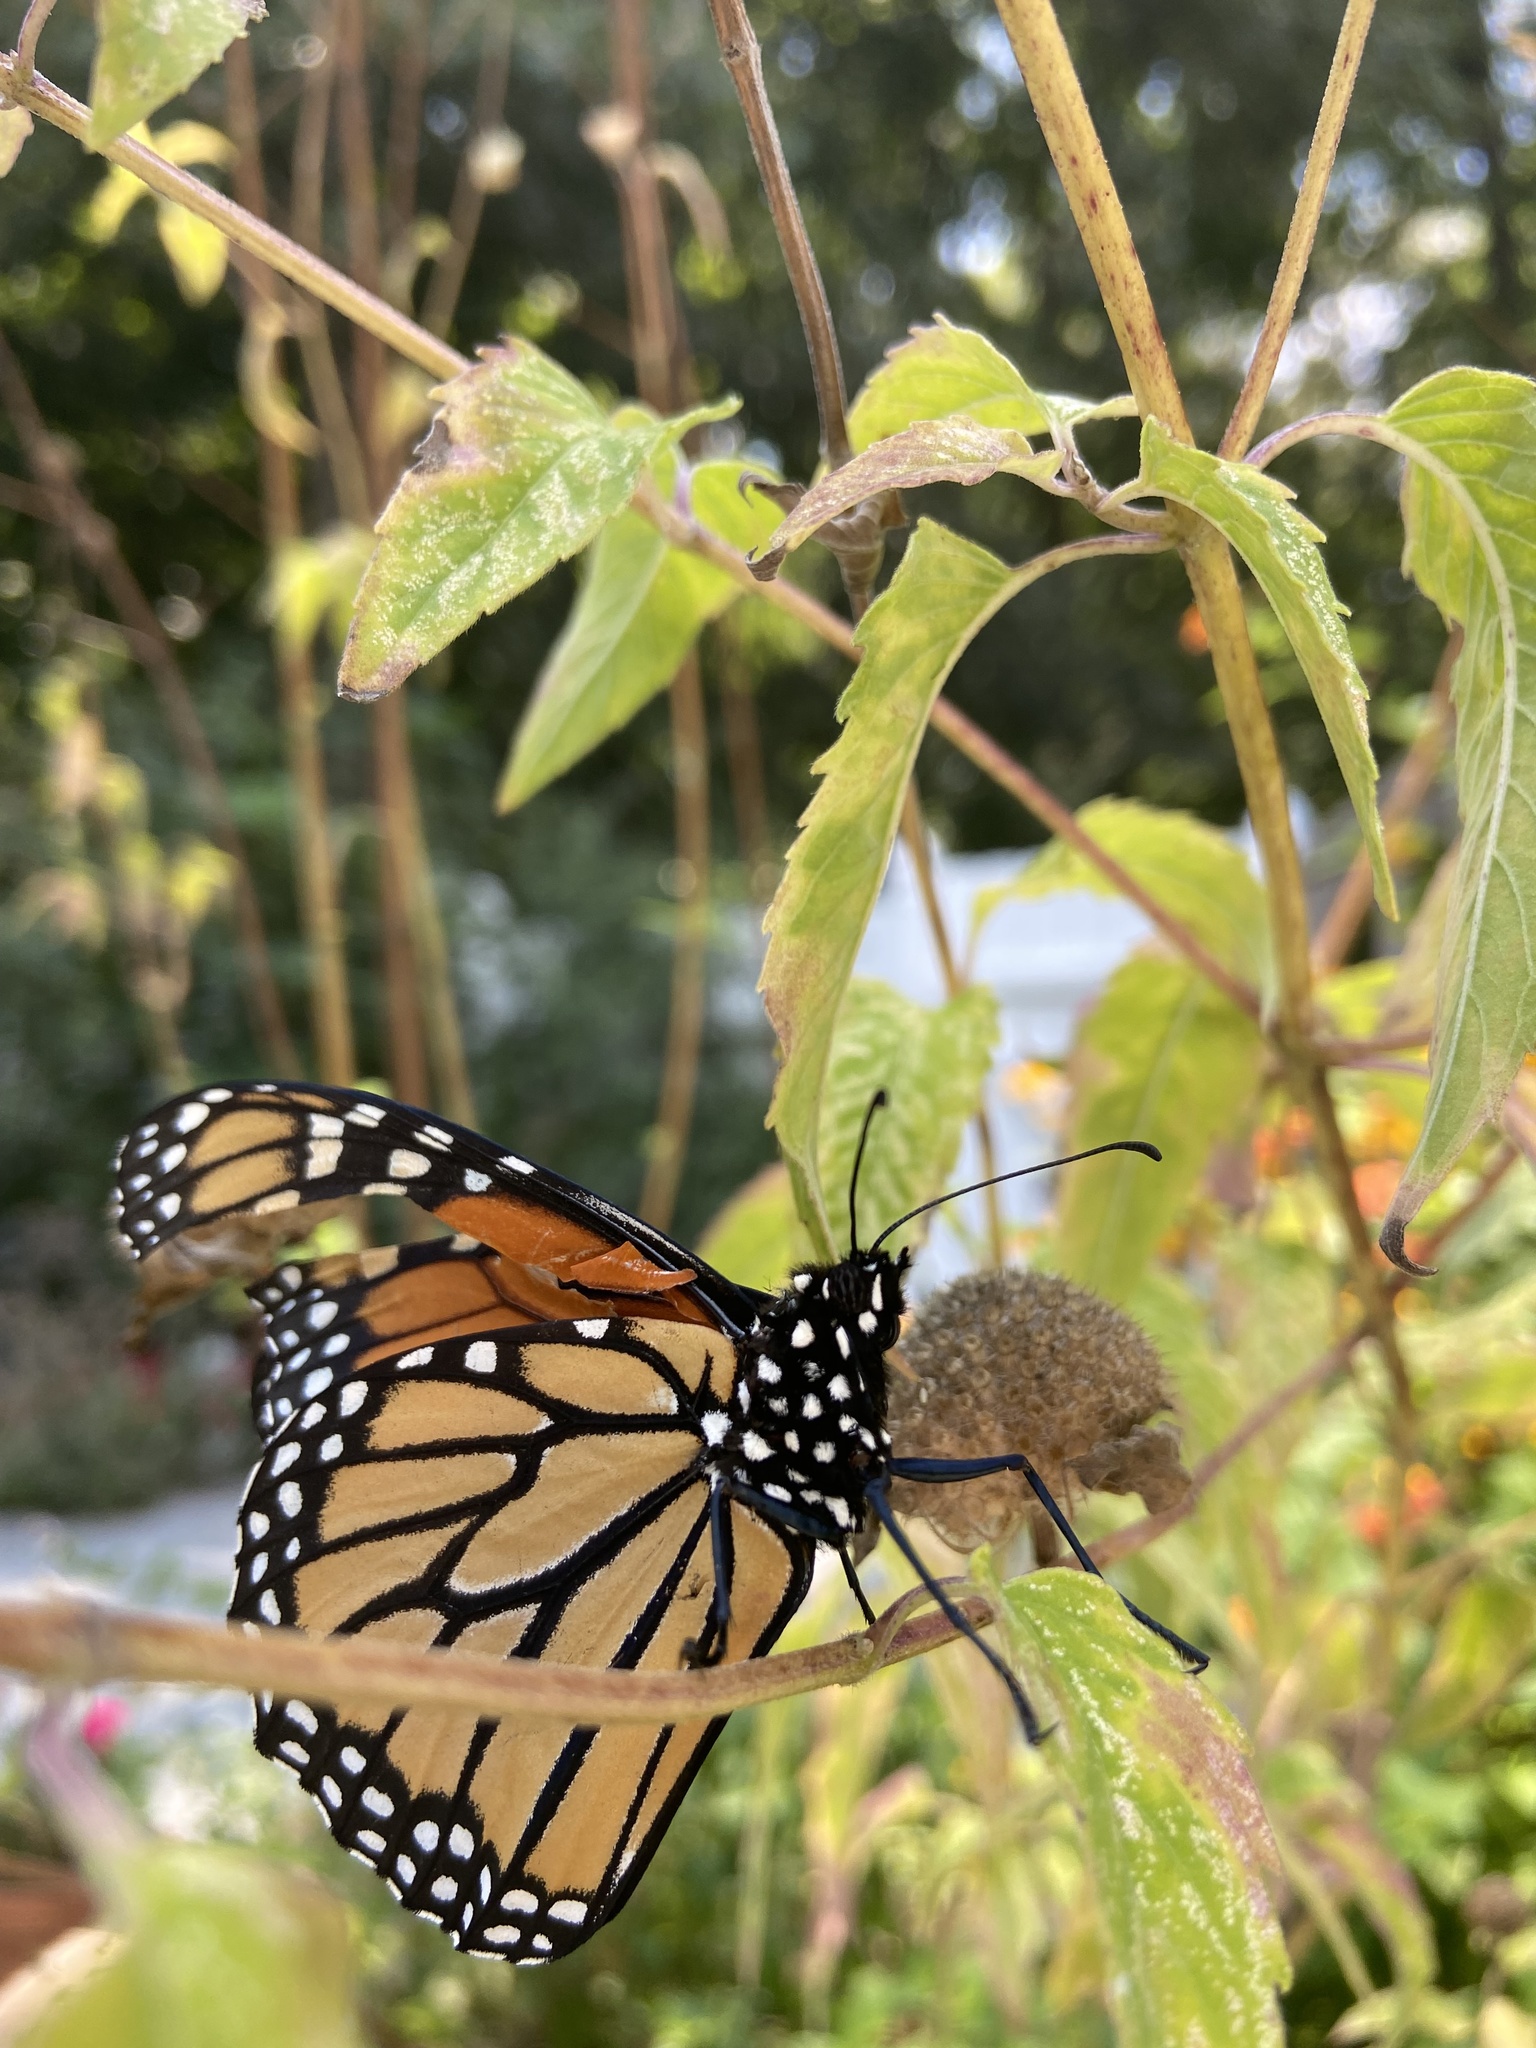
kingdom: Animalia
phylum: Arthropoda
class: Insecta
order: Lepidoptera
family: Nymphalidae
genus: Danaus
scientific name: Danaus plexippus
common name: Monarch
